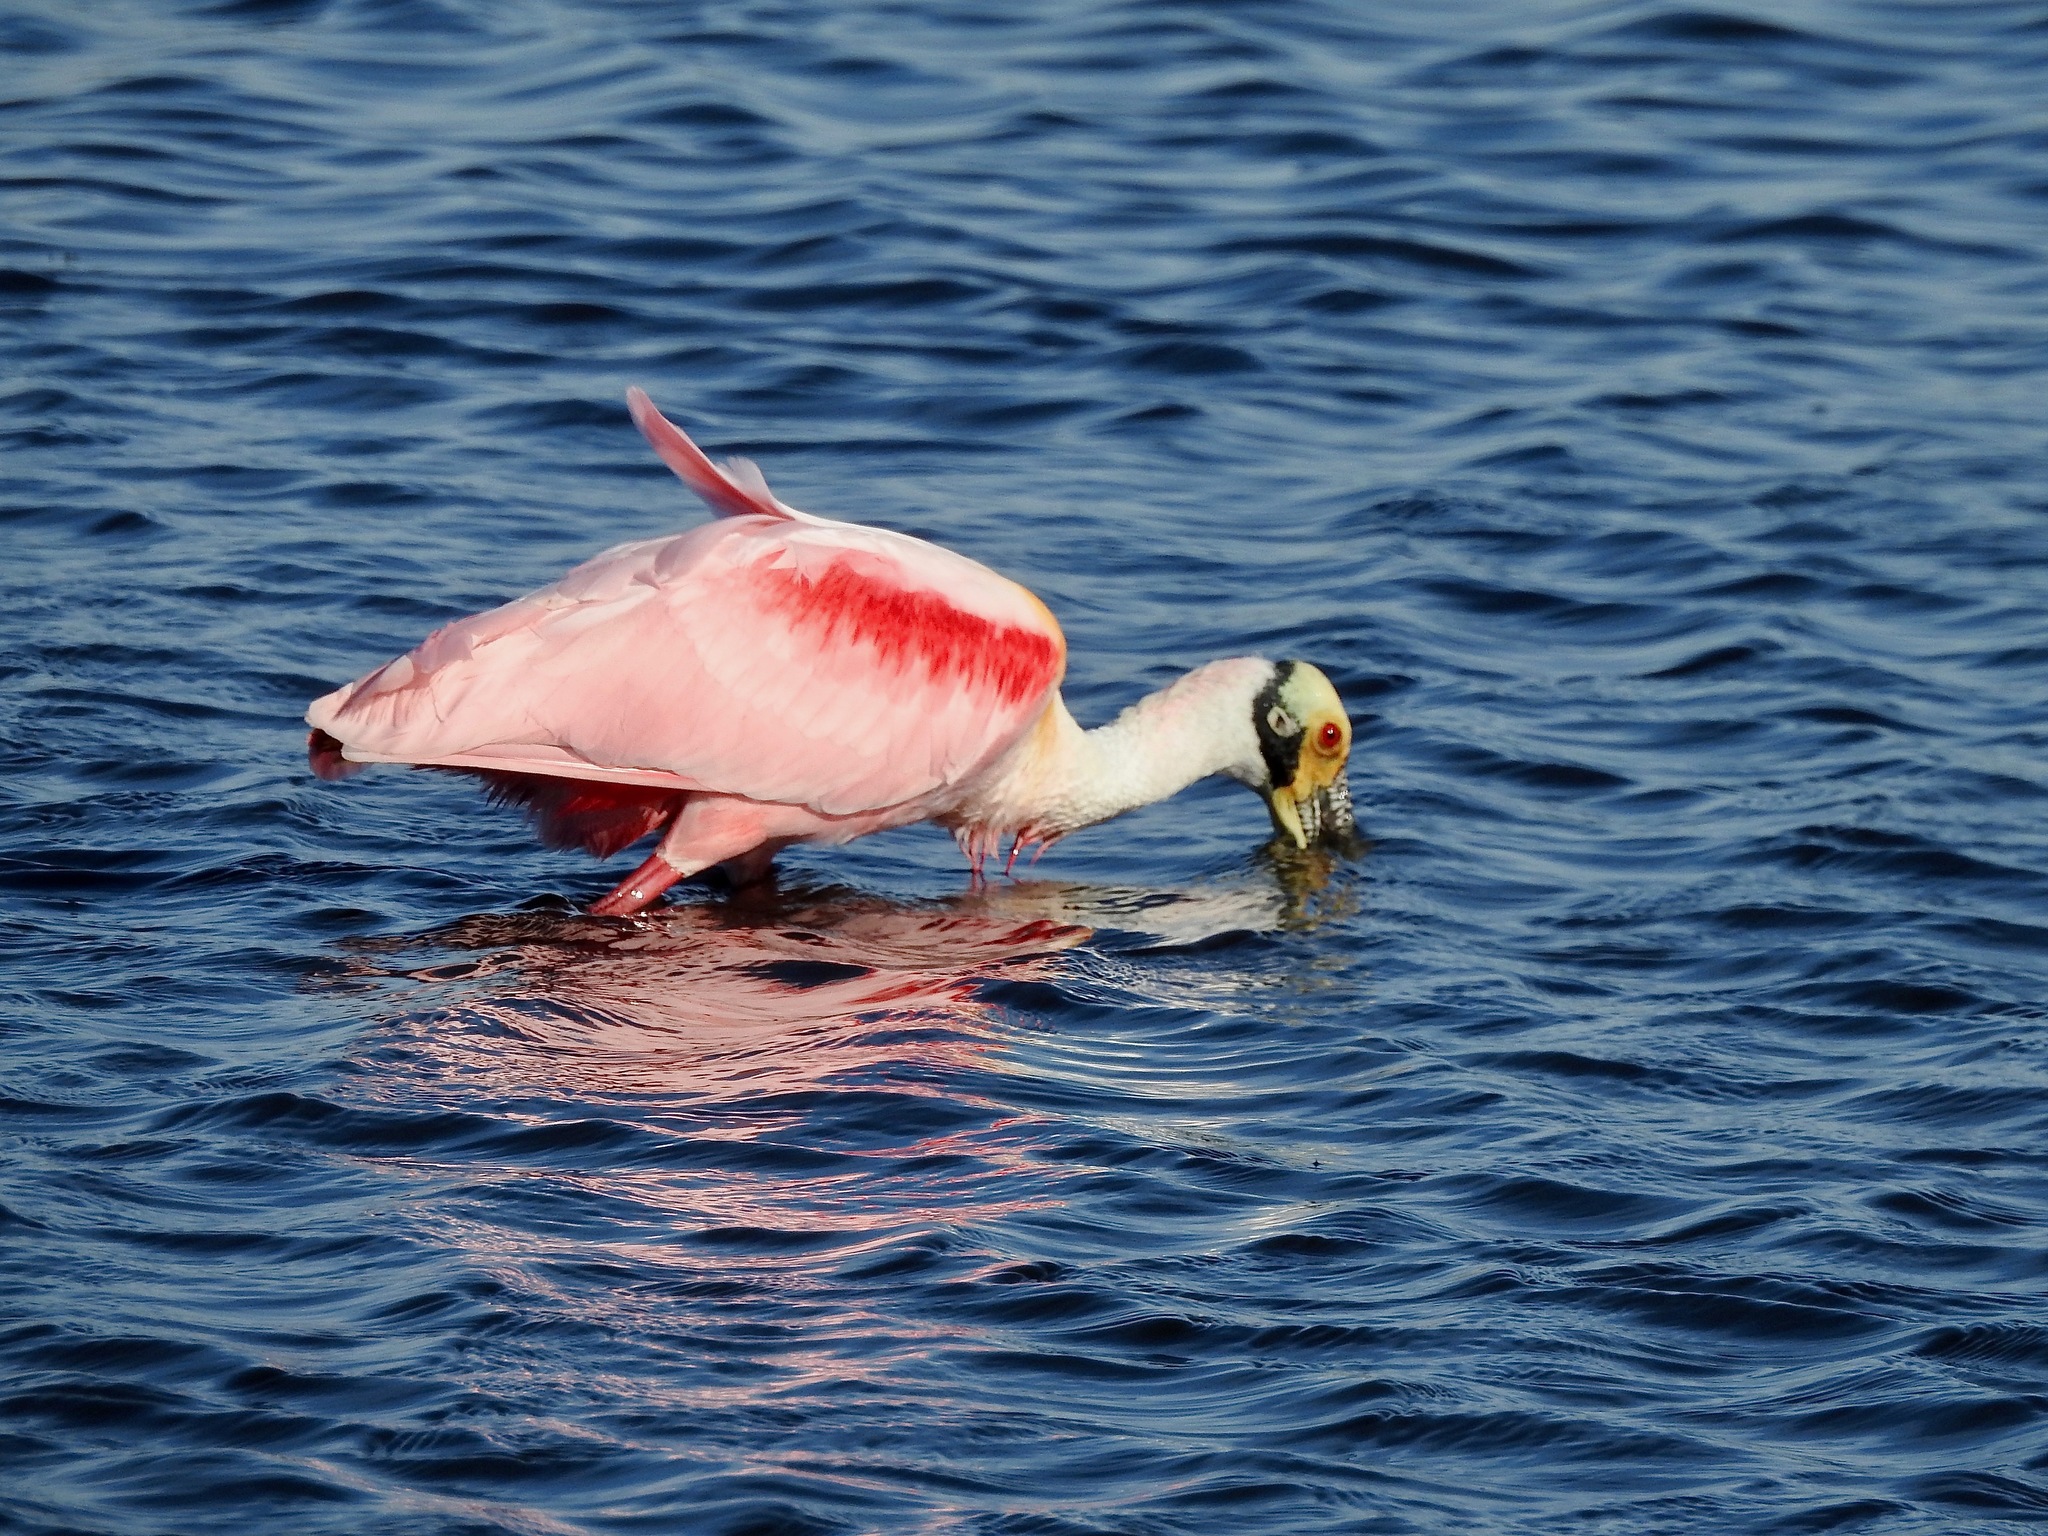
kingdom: Animalia
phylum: Chordata
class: Aves
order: Pelecaniformes
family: Threskiornithidae
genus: Platalea
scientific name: Platalea ajaja
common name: Roseate spoonbill
